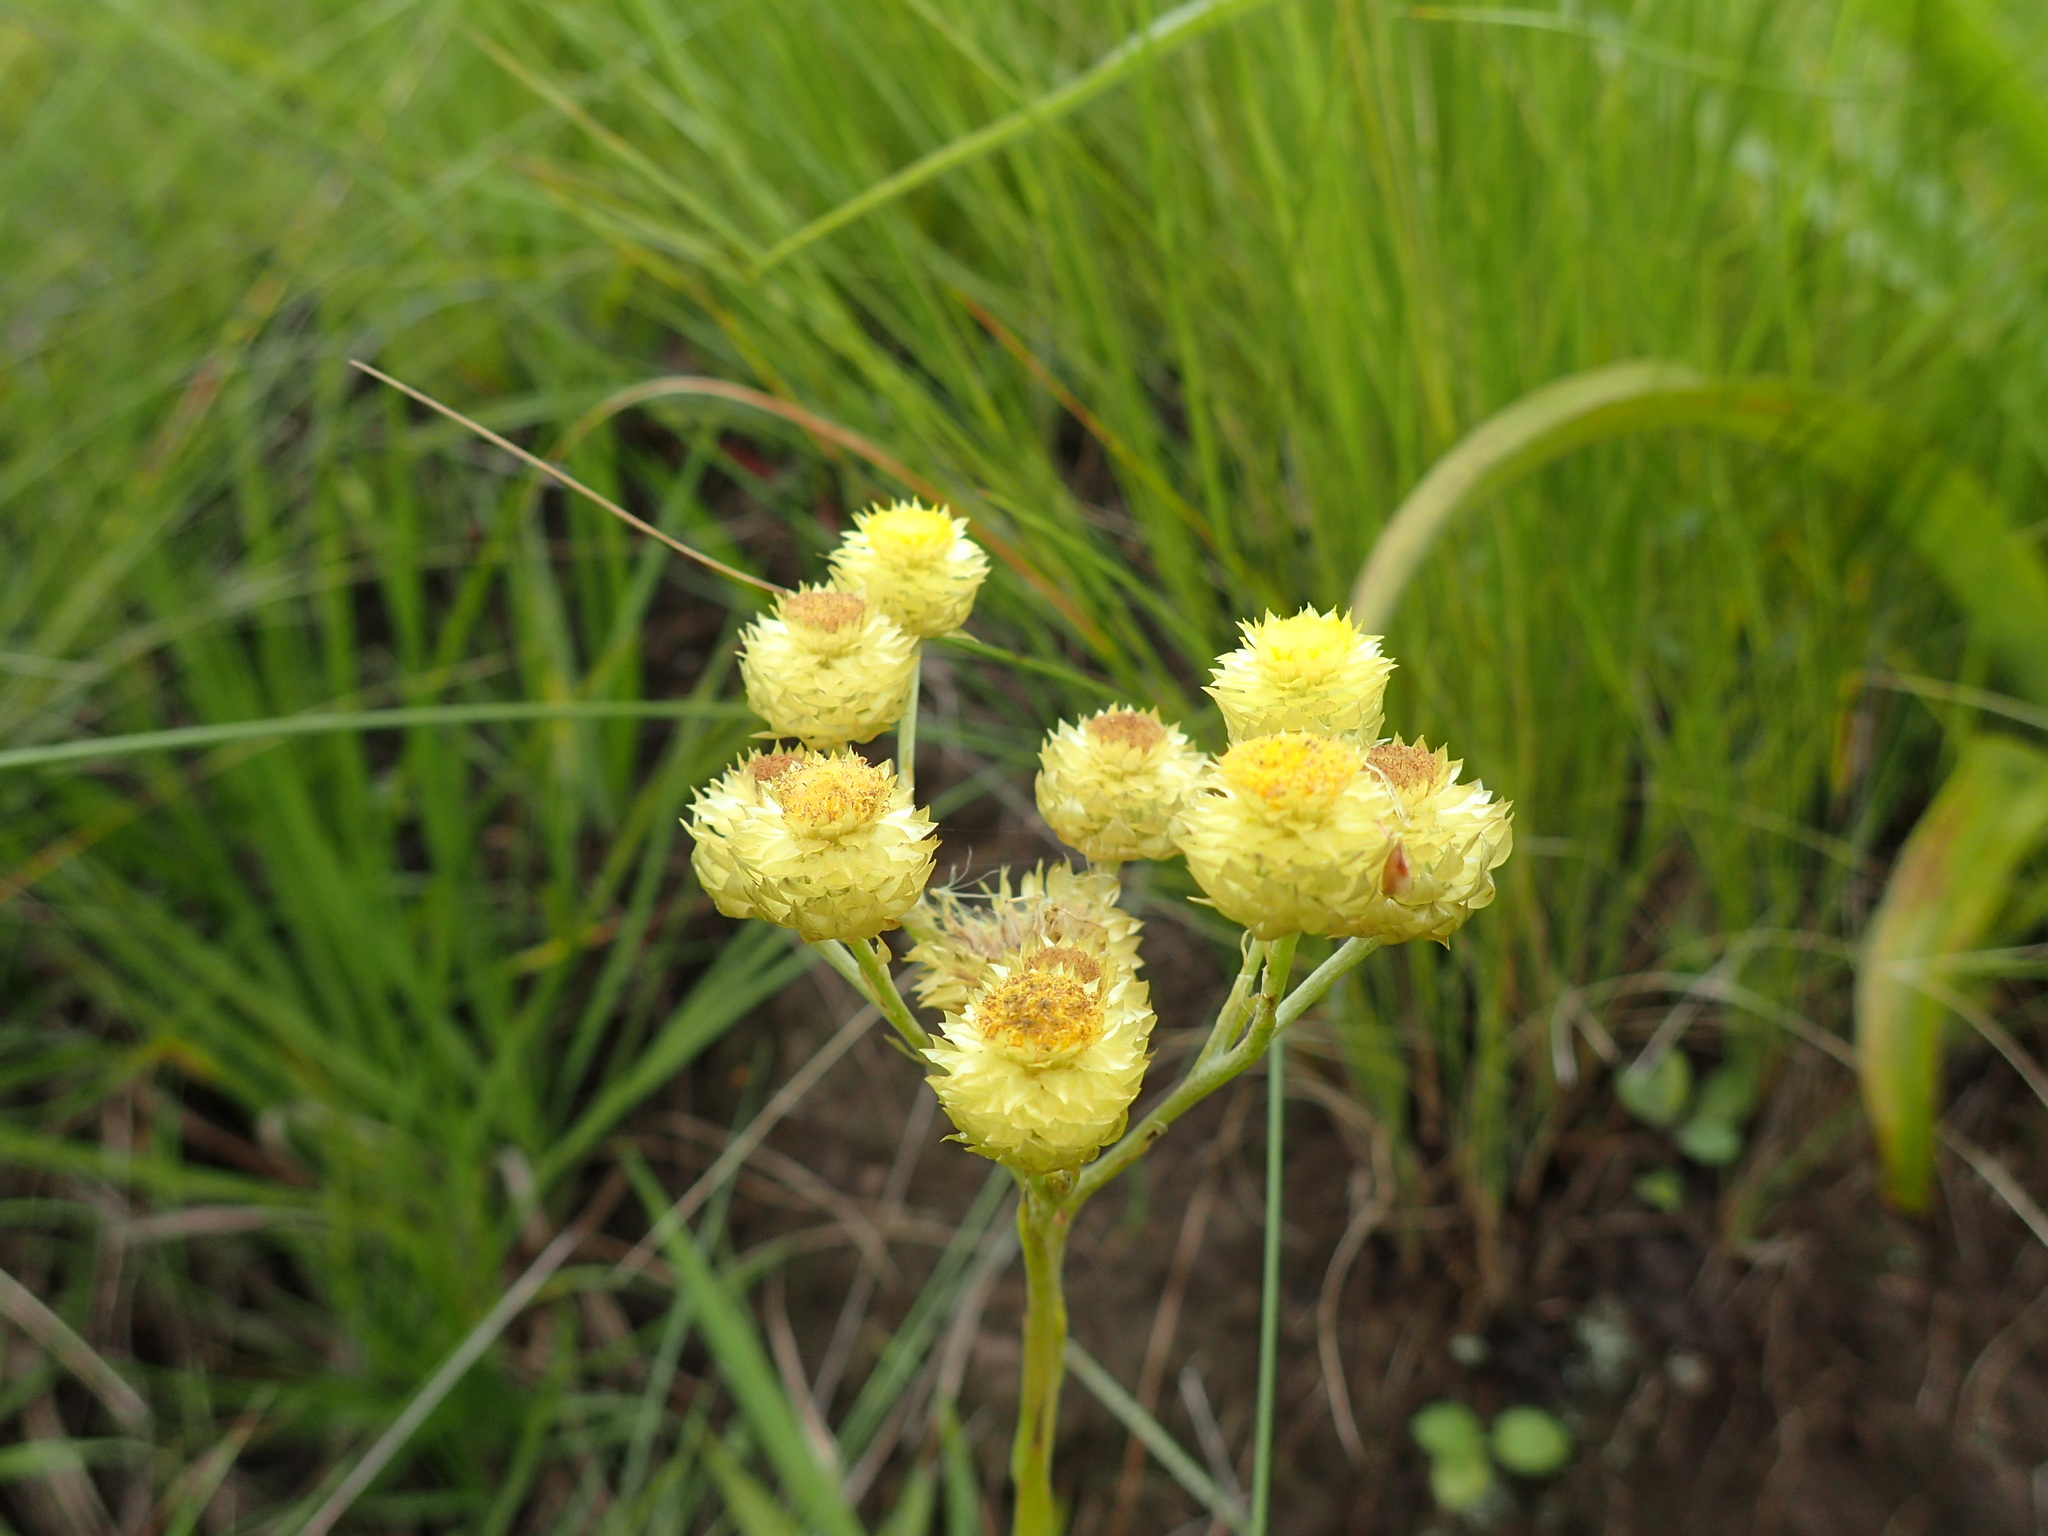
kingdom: Plantae
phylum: Tracheophyta
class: Magnoliopsida
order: Asterales
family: Asteraceae
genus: Helichrysum
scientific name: Helichrysum mixtum
